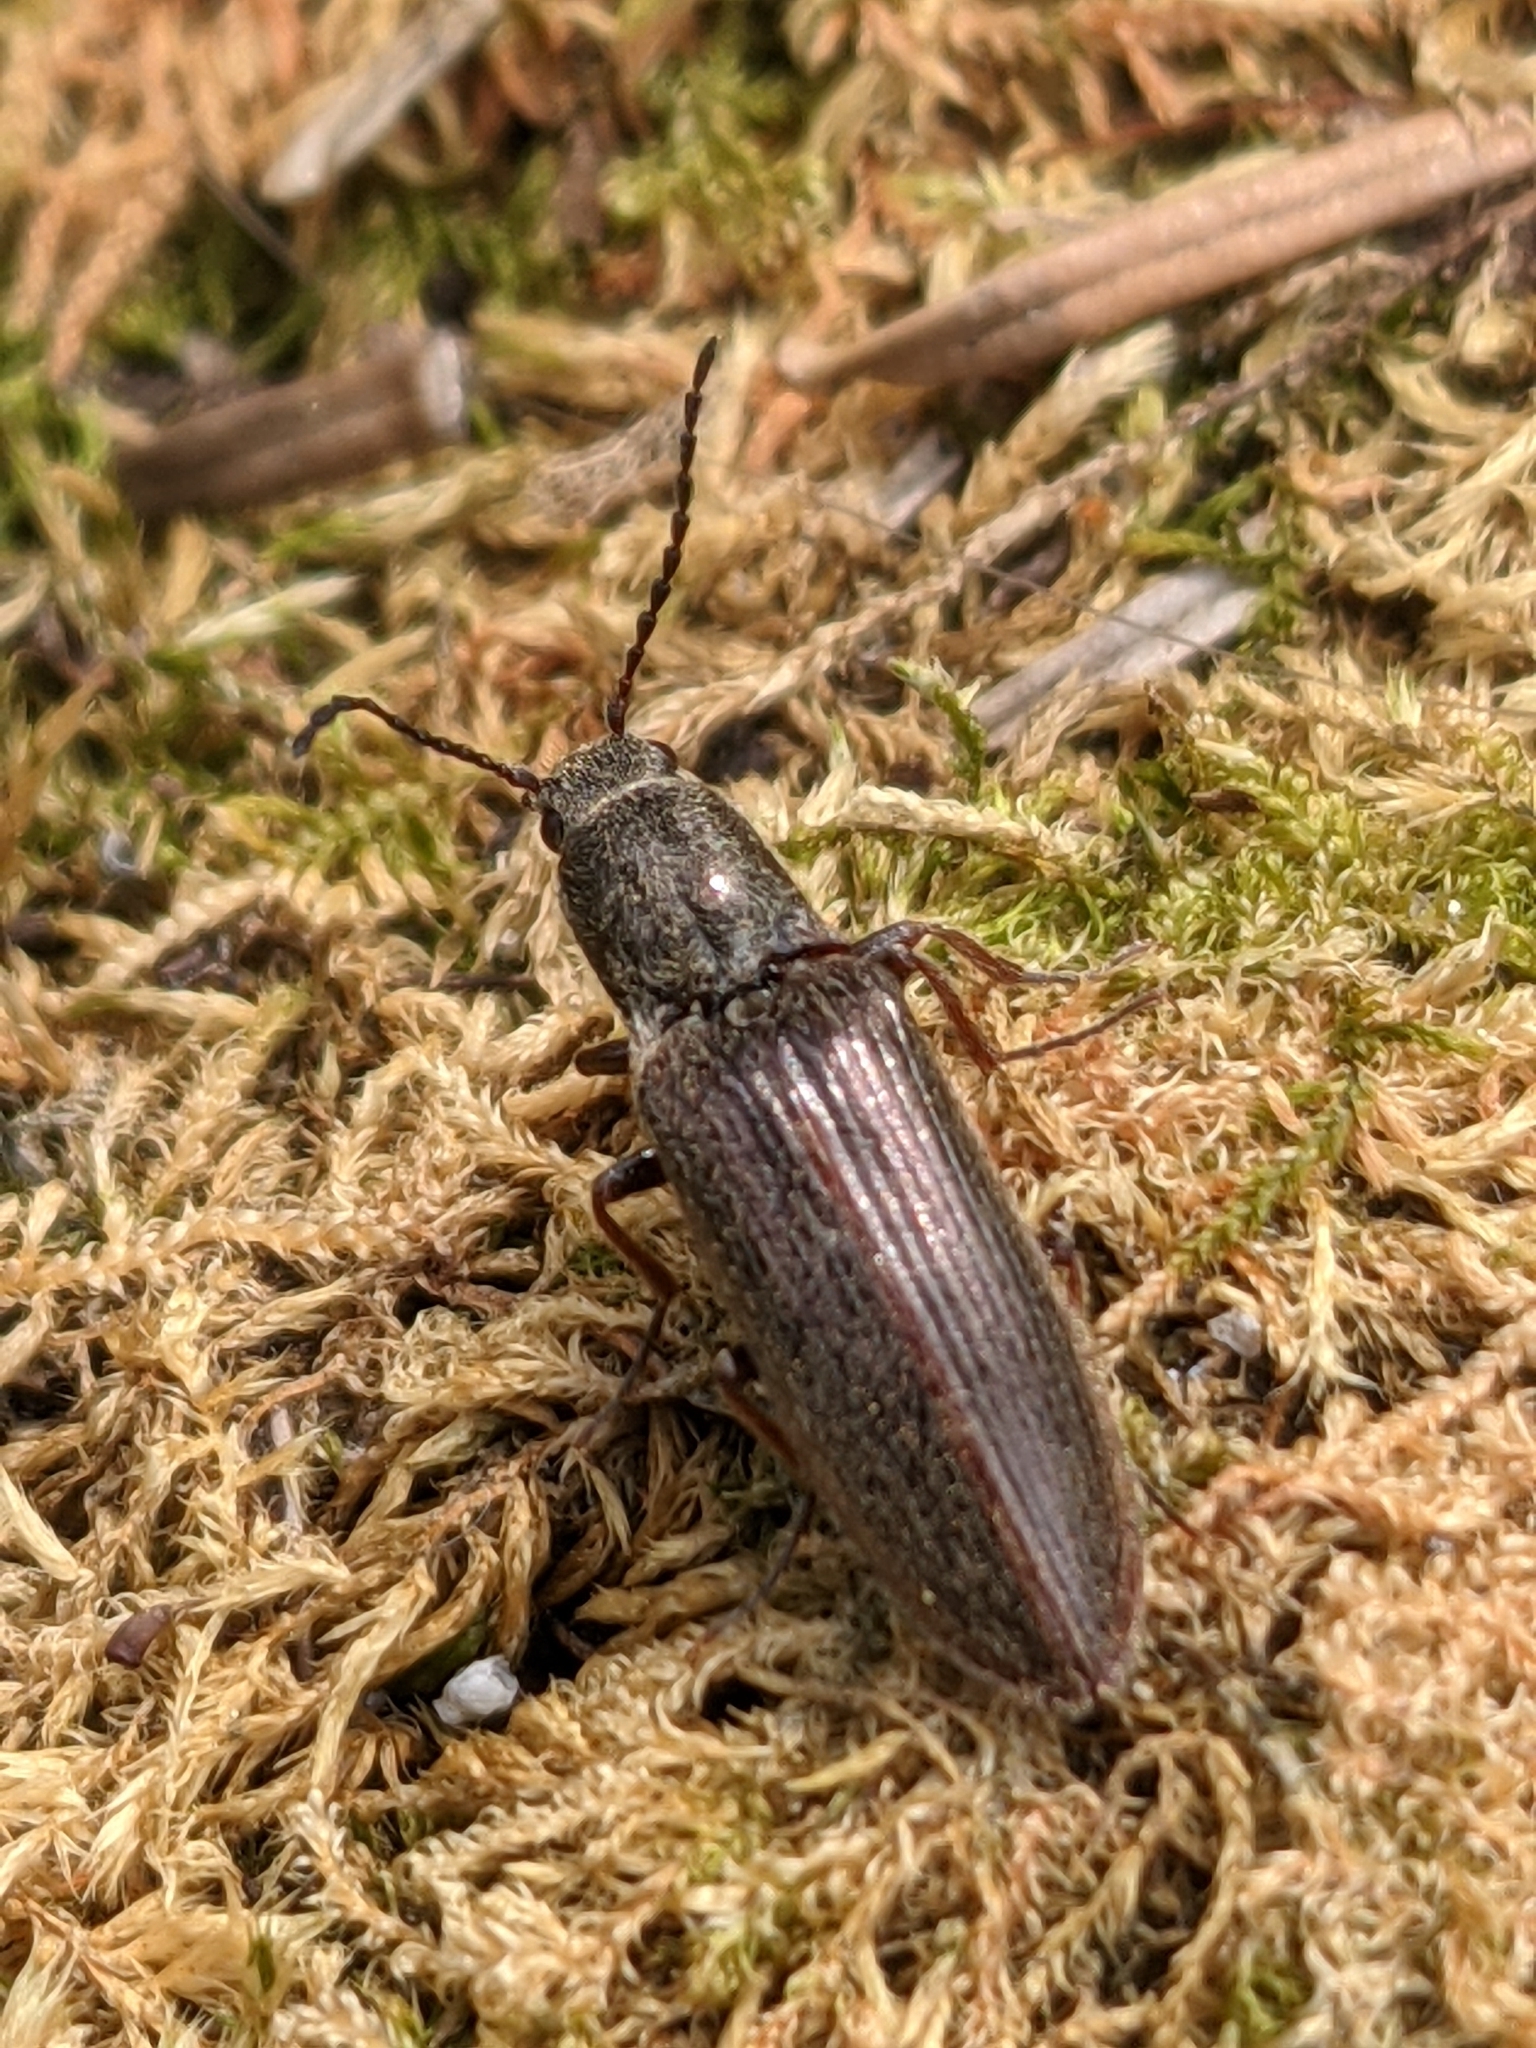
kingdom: Animalia
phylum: Arthropoda
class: Insecta
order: Coleoptera
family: Elateridae
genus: Sylvanelater
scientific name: Sylvanelater cylindriformis
